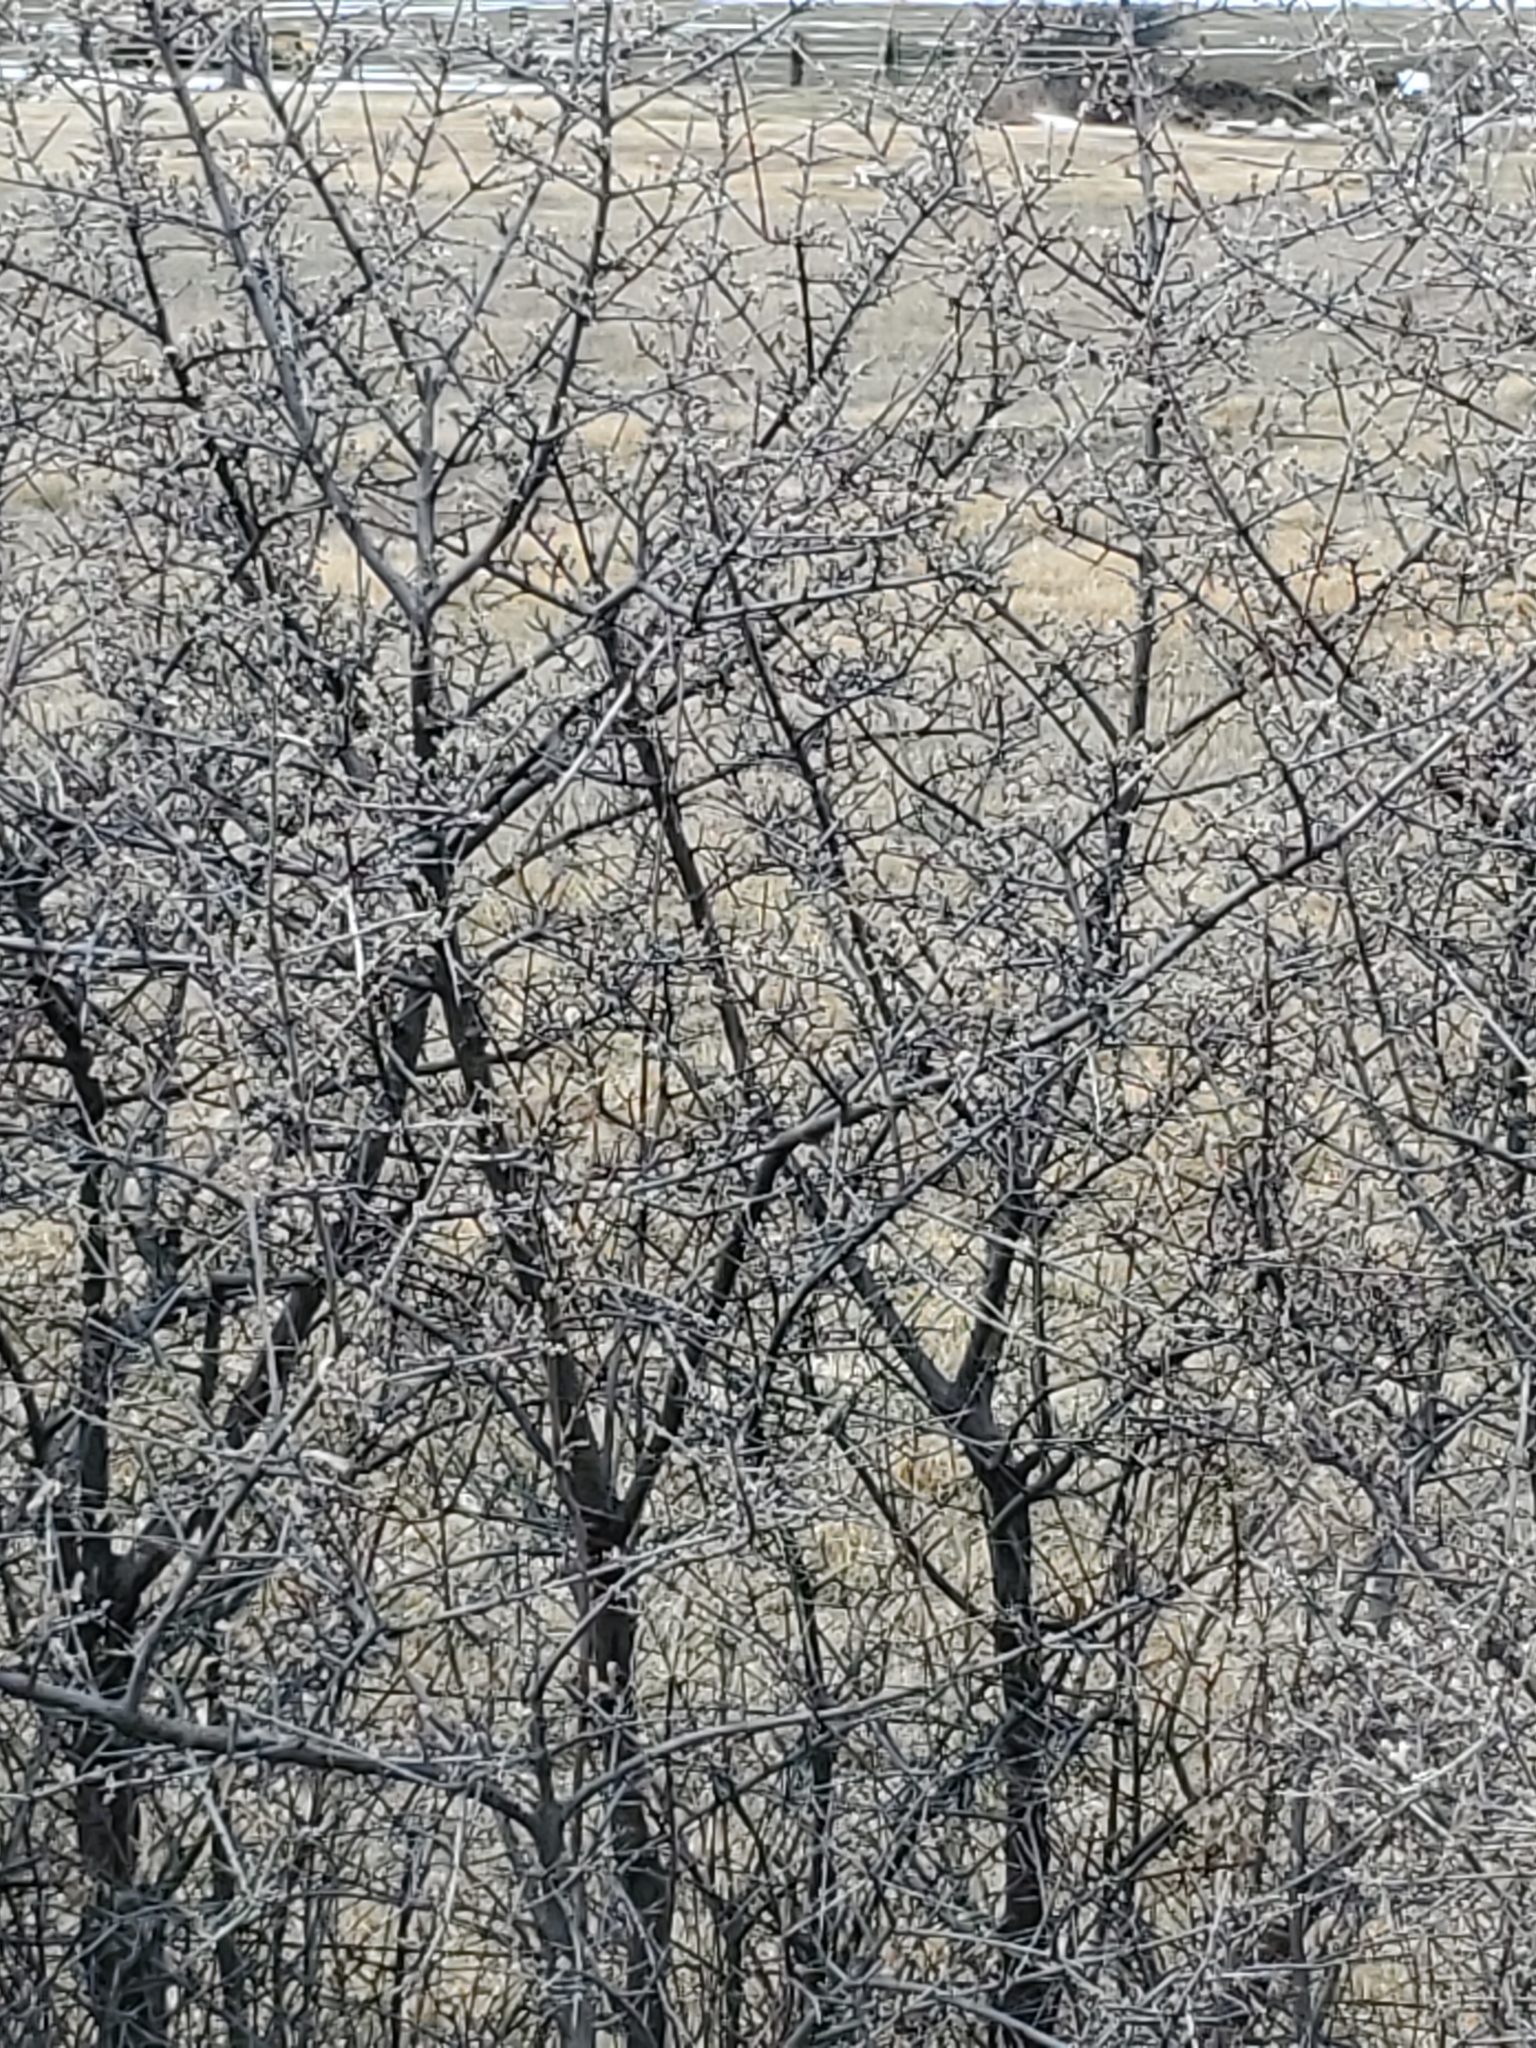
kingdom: Plantae
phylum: Tracheophyta
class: Magnoliopsida
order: Rosales
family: Elaeagnaceae
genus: Shepherdia
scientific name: Shepherdia argentea
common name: Silver buffaloberry
